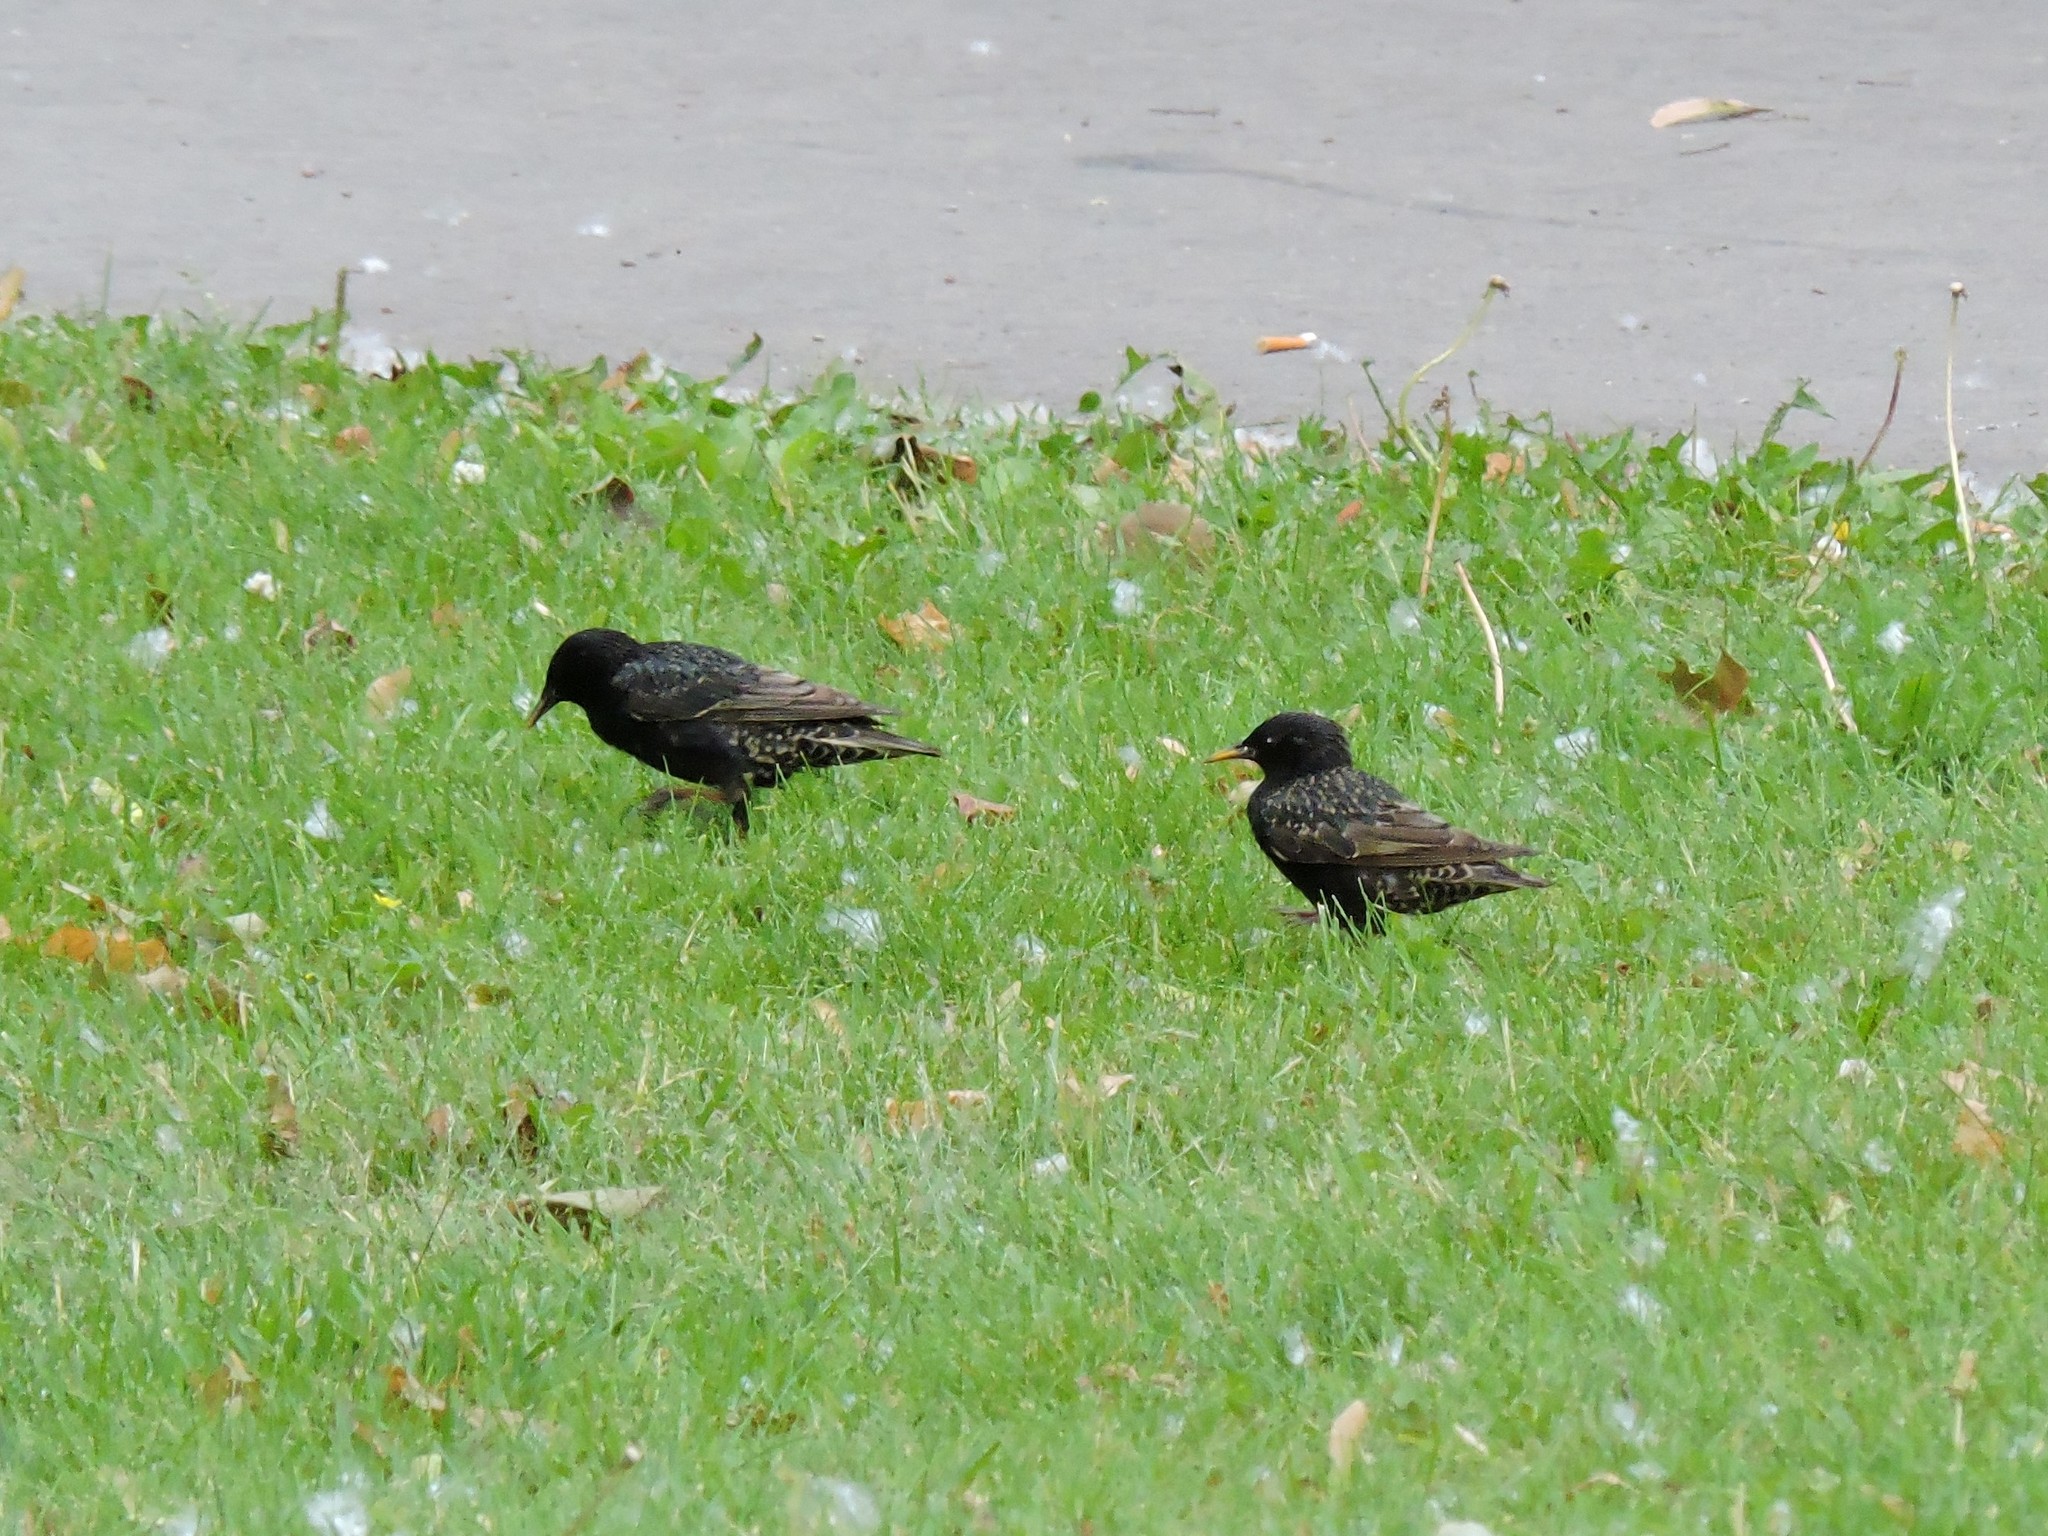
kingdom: Animalia
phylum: Chordata
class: Aves
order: Passeriformes
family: Sturnidae
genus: Sturnus
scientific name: Sturnus vulgaris
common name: Common starling
